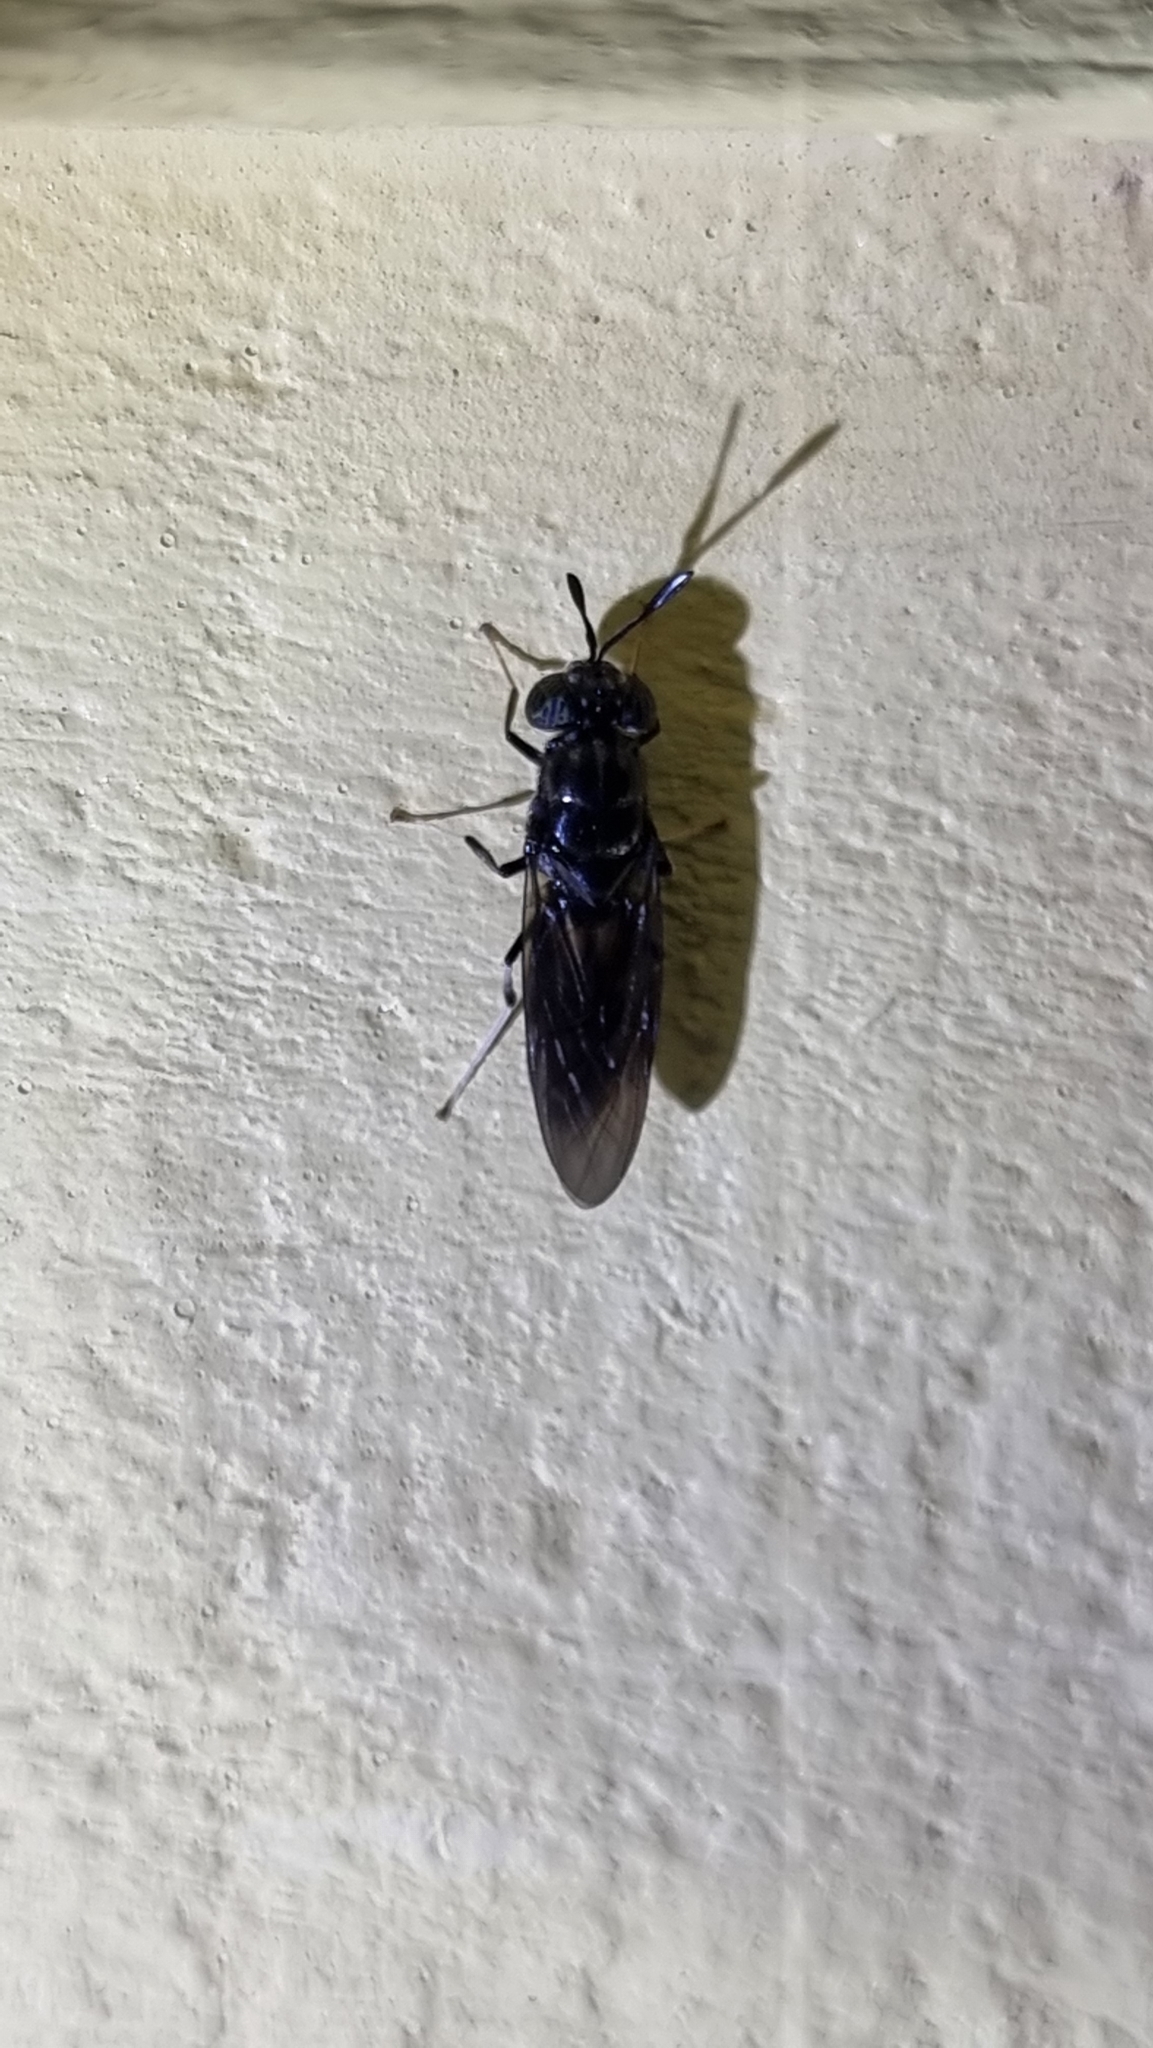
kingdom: Animalia
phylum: Arthropoda
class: Insecta
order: Diptera
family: Stratiomyidae
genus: Hermetia
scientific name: Hermetia illucens
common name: Black soldier fly
